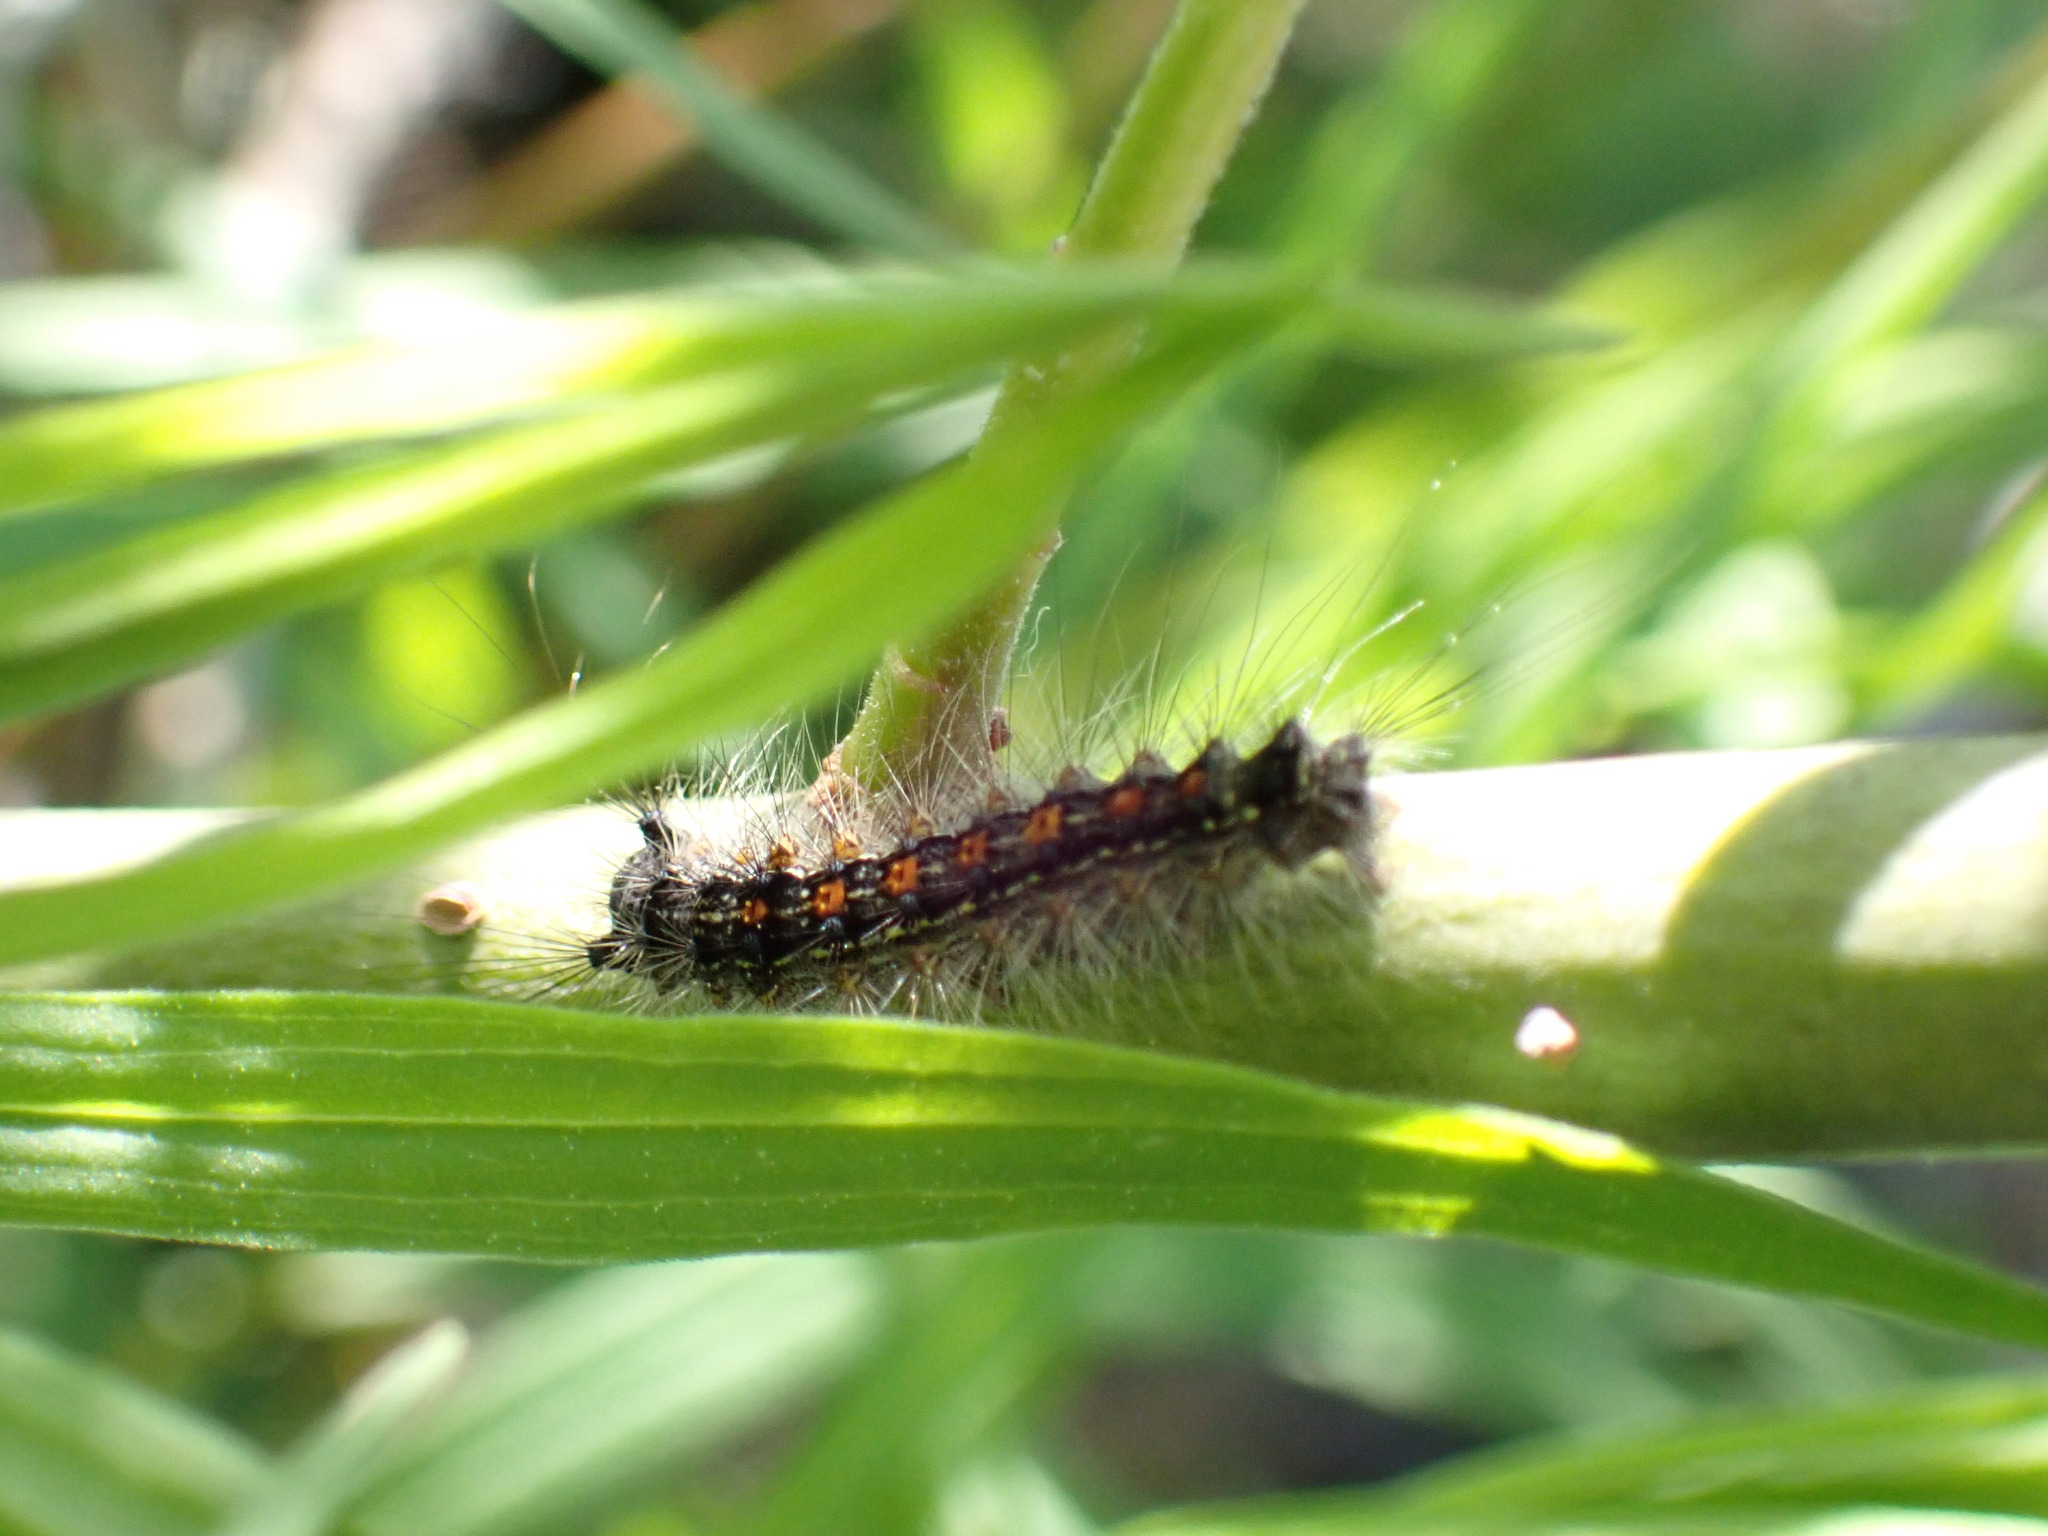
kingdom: Animalia
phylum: Arthropoda
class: Insecta
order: Lepidoptera
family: Erebidae
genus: Lymantria
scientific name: Lymantria dispar
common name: Gypsy moth
